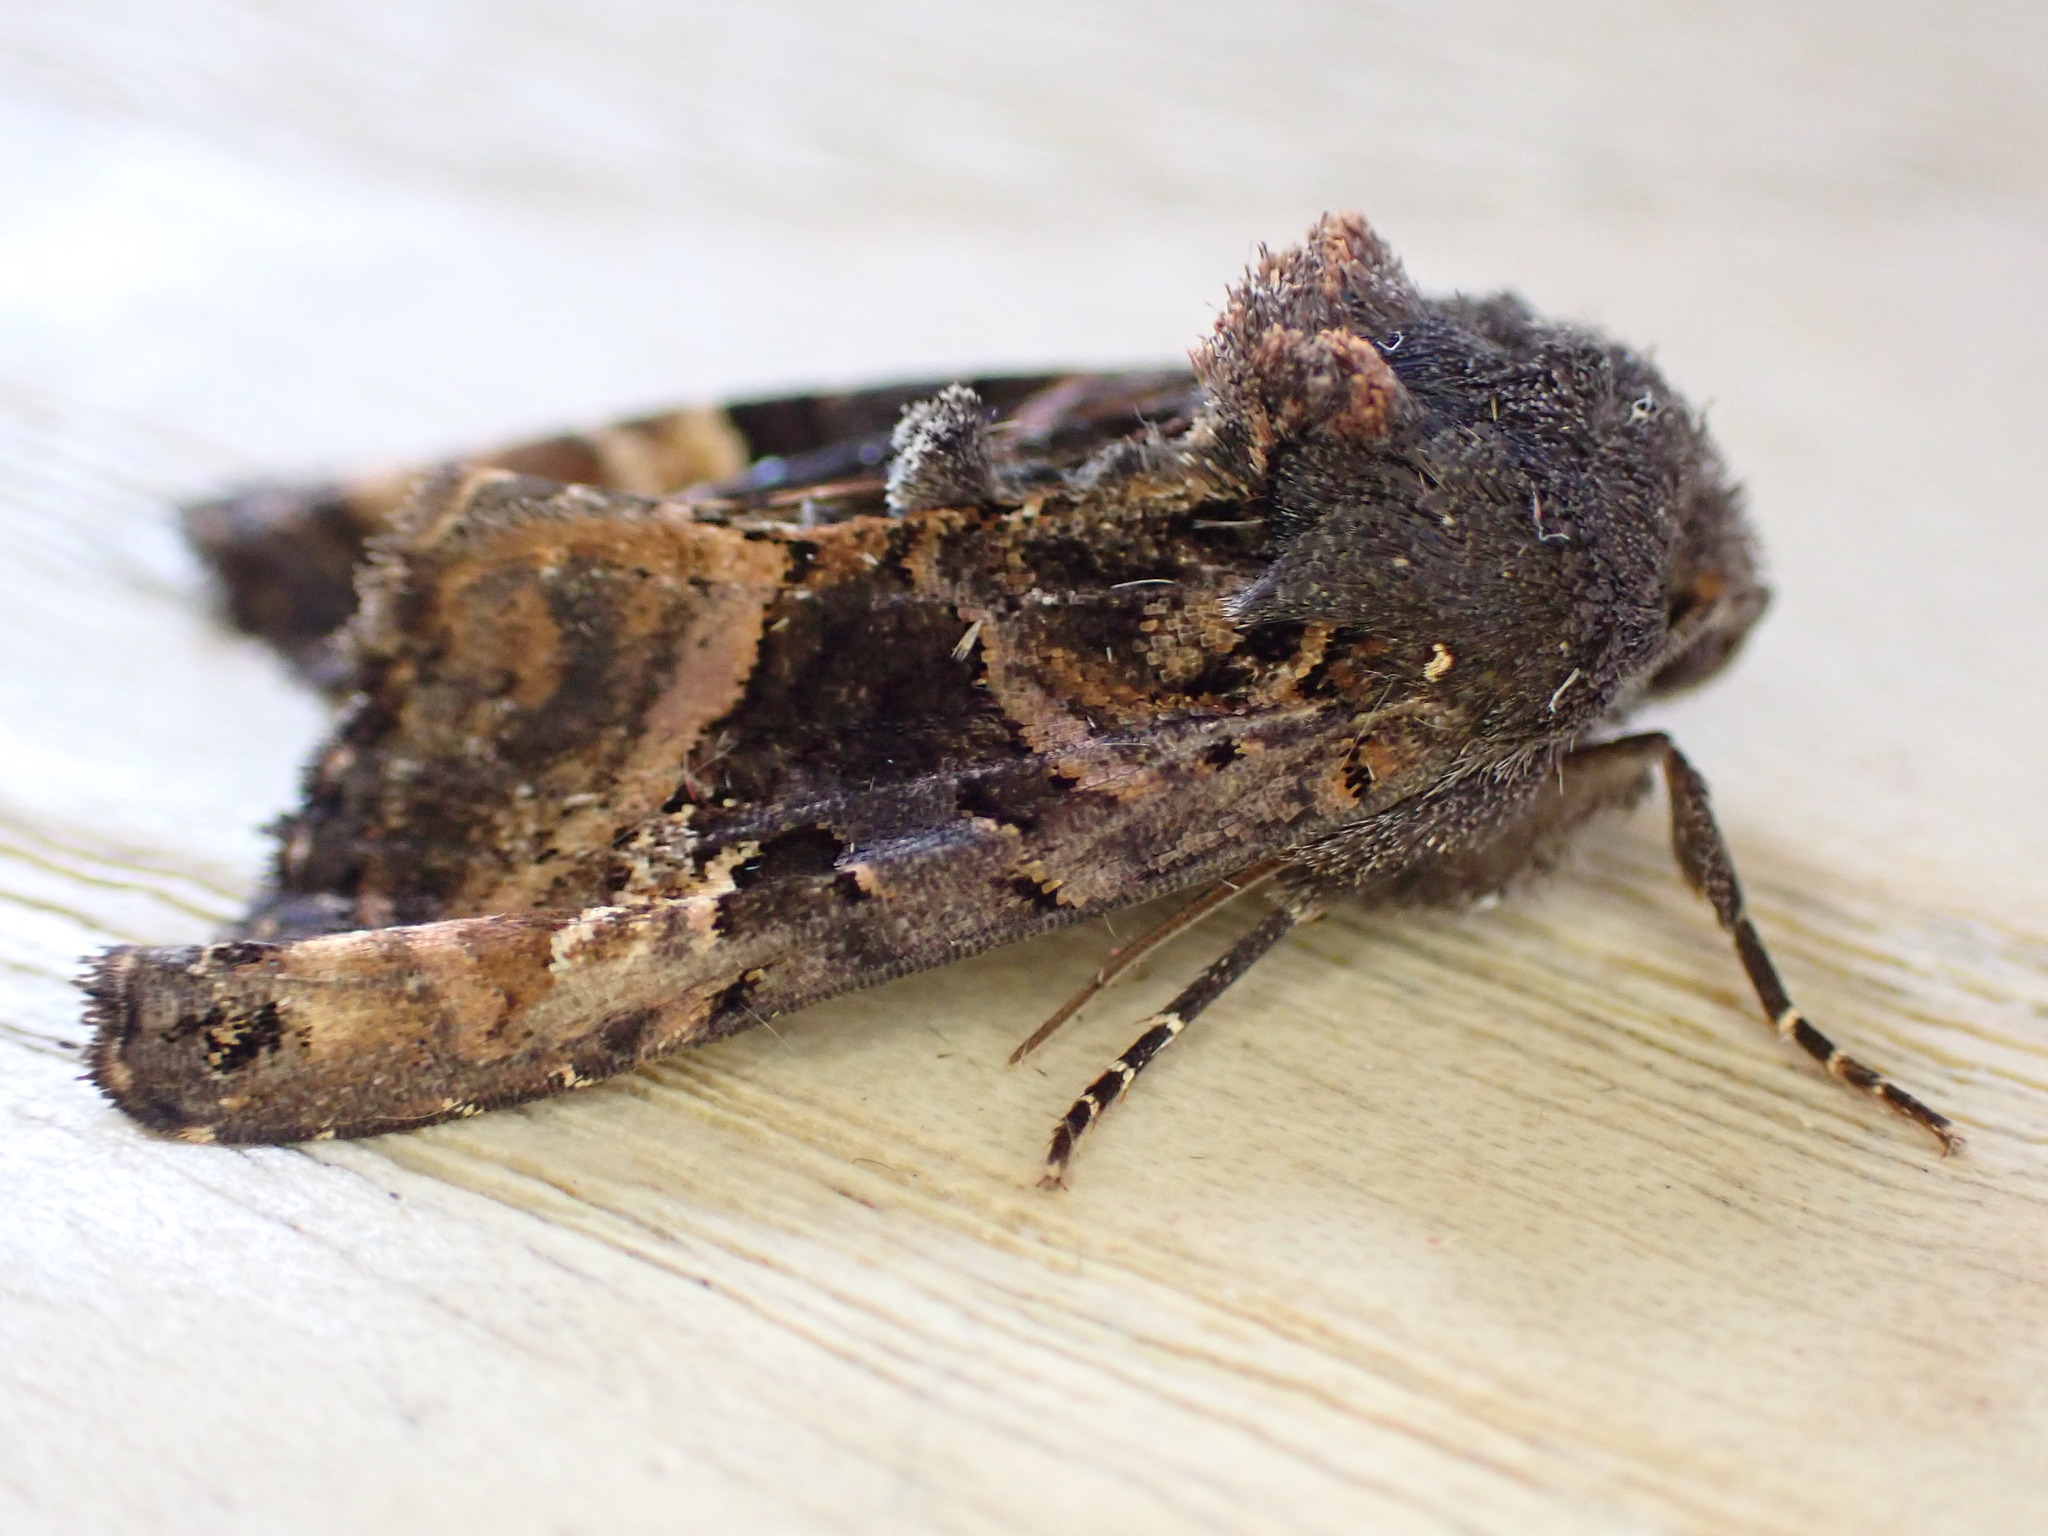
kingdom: Animalia
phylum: Arthropoda
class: Insecta
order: Lepidoptera
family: Noctuidae
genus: Euplexia
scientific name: Euplexia lucipara
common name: Small angle shades
